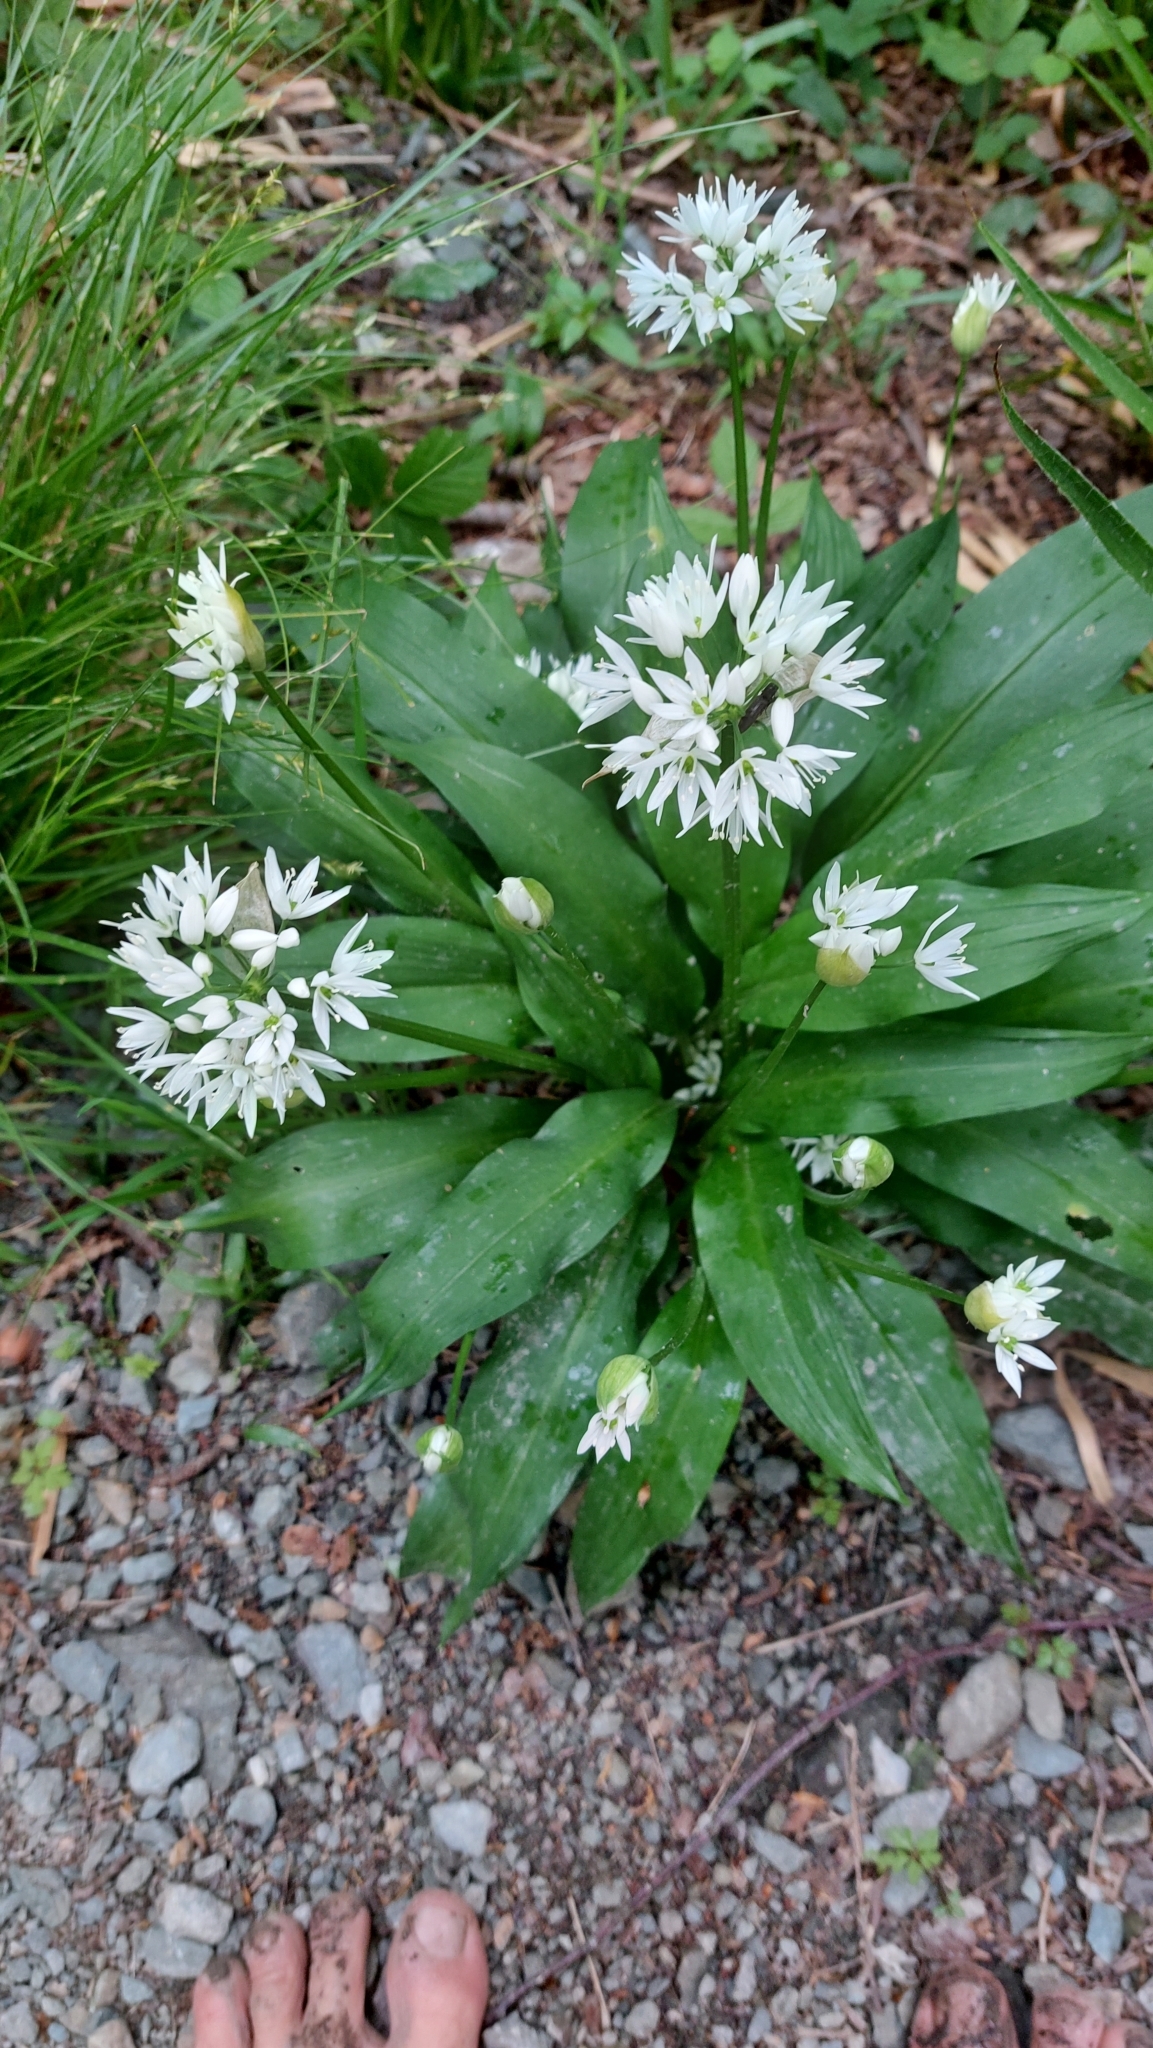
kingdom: Plantae
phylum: Tracheophyta
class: Liliopsida
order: Asparagales
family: Amaryllidaceae
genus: Allium
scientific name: Allium ursinum
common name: Ramsons
